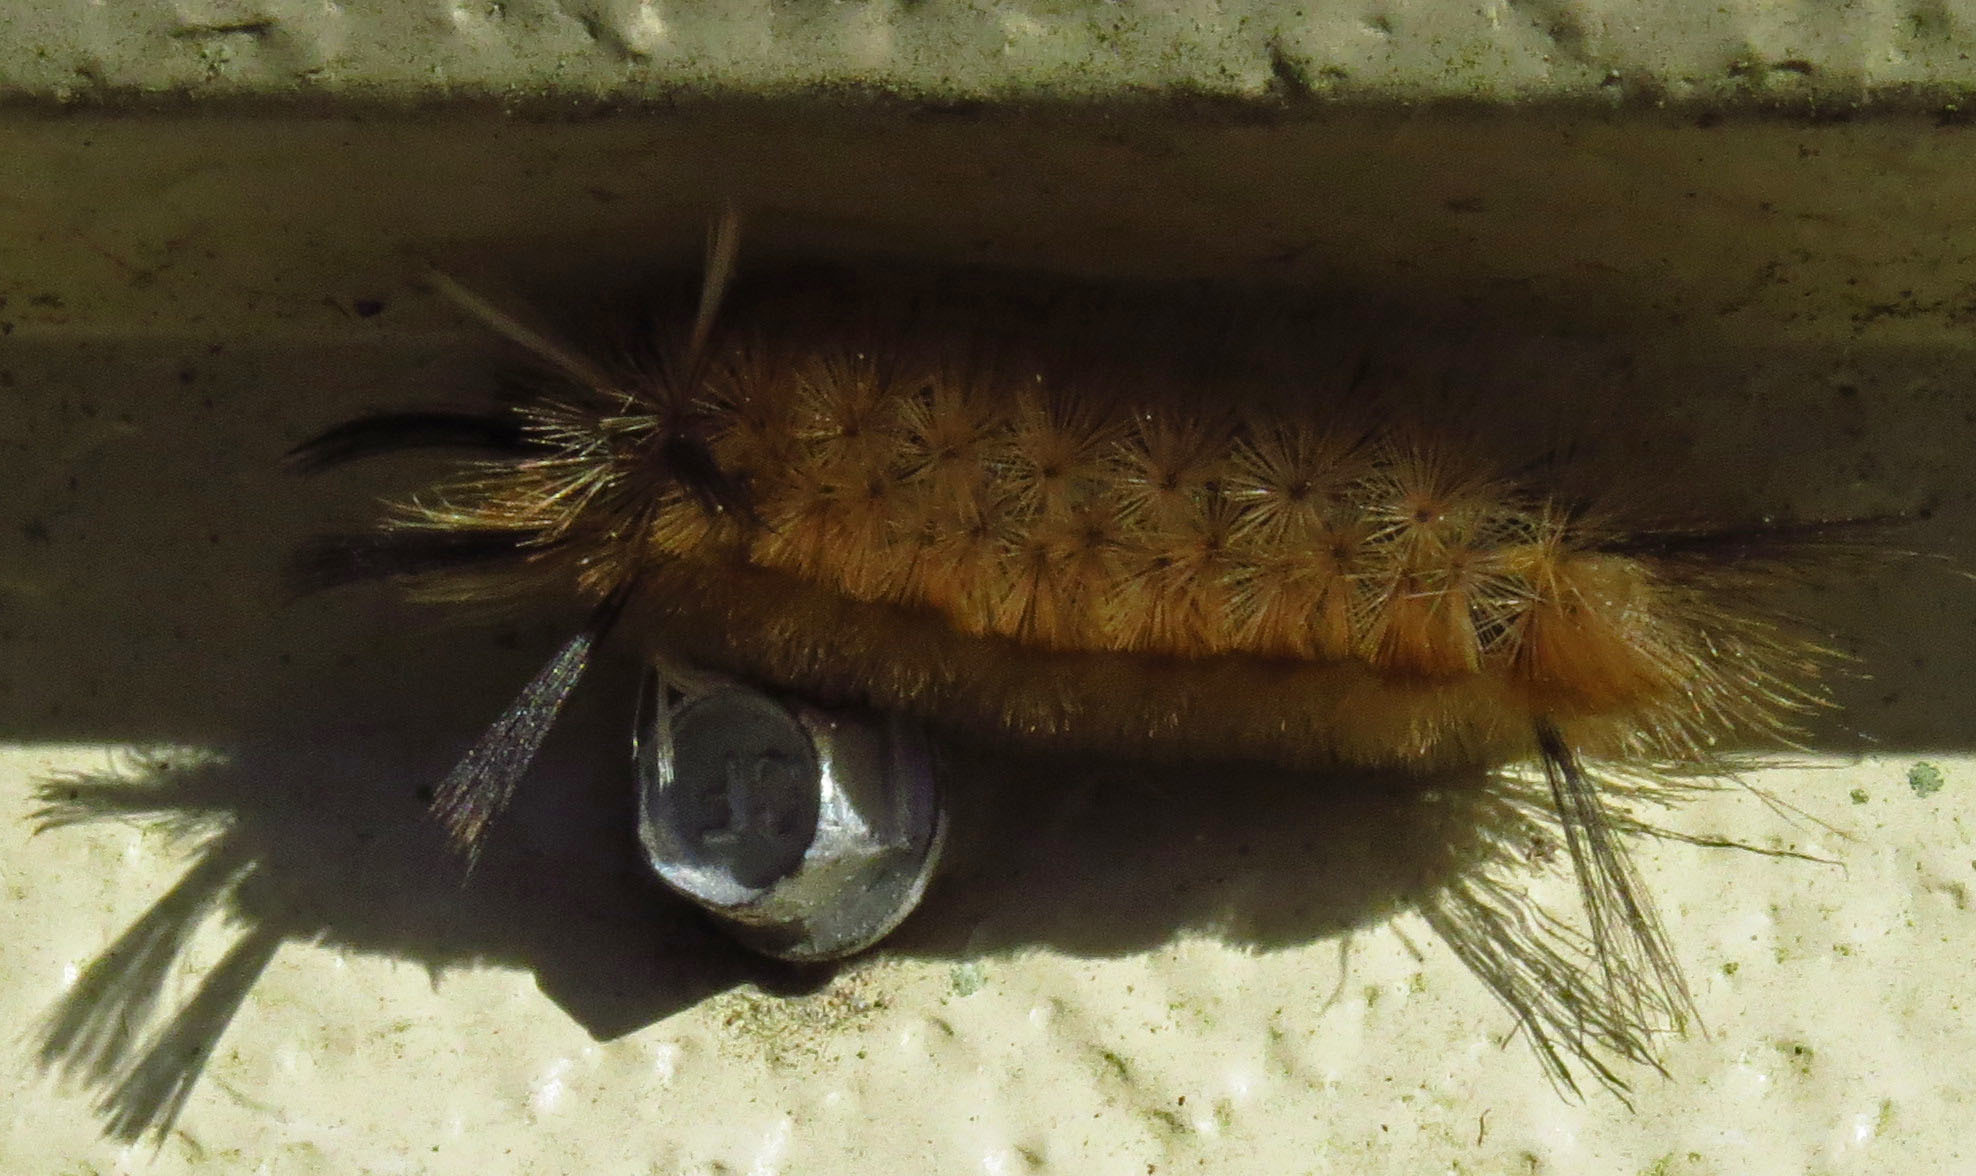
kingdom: Animalia
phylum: Arthropoda
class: Insecta
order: Lepidoptera
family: Erebidae
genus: Halysidota
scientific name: Halysidota tessellaris
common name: Banded tussock moth
